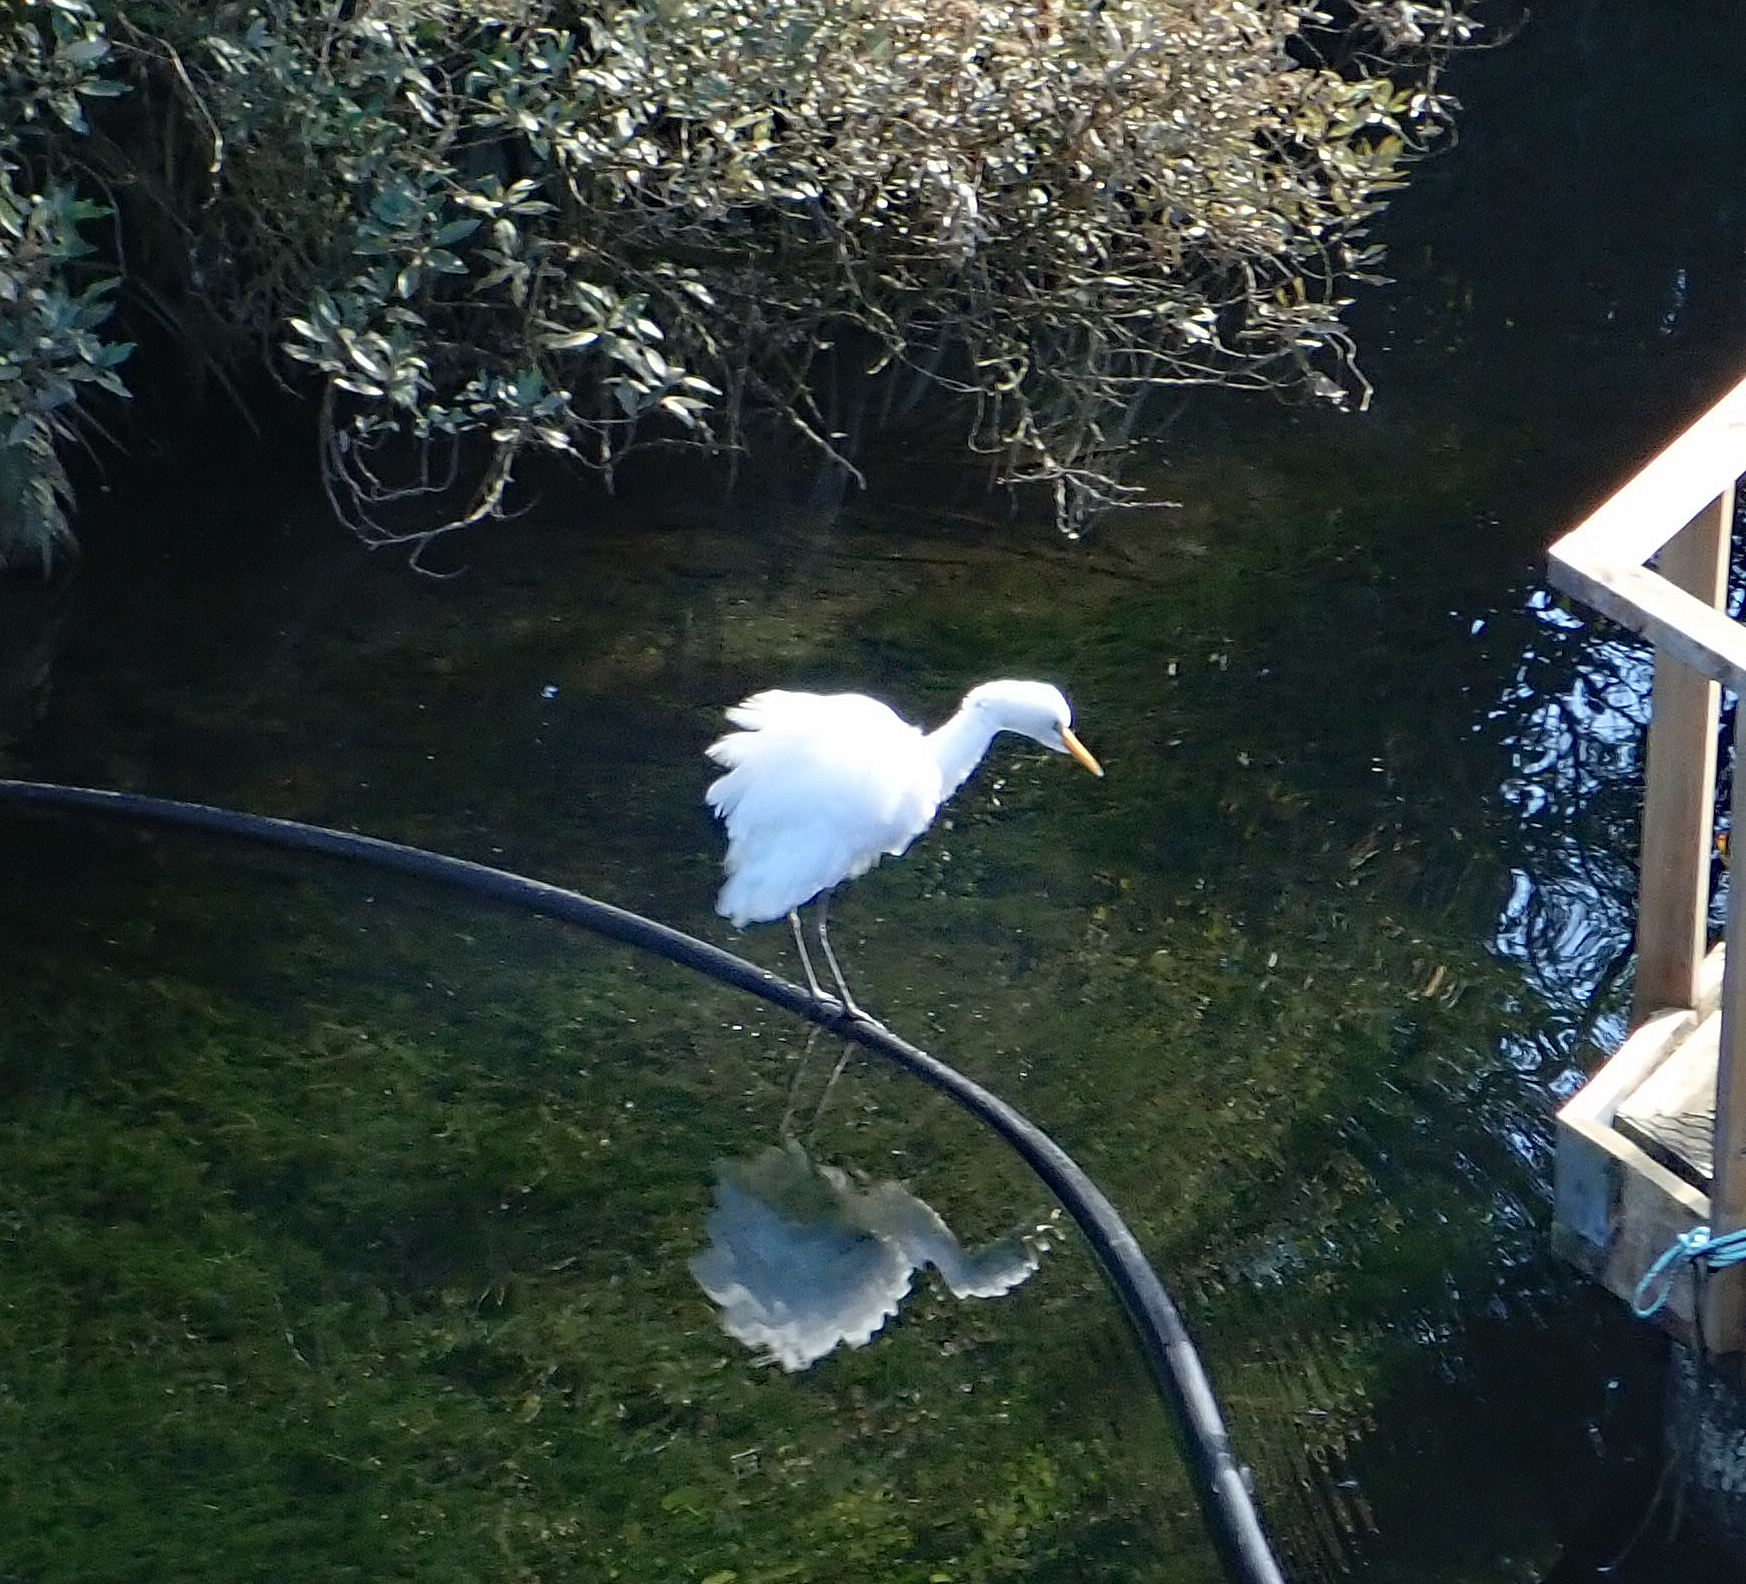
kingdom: Animalia
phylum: Chordata
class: Aves
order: Pelecaniformes
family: Ardeidae
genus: Bubulcus
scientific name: Bubulcus coromandus
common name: Eastern cattle egret
